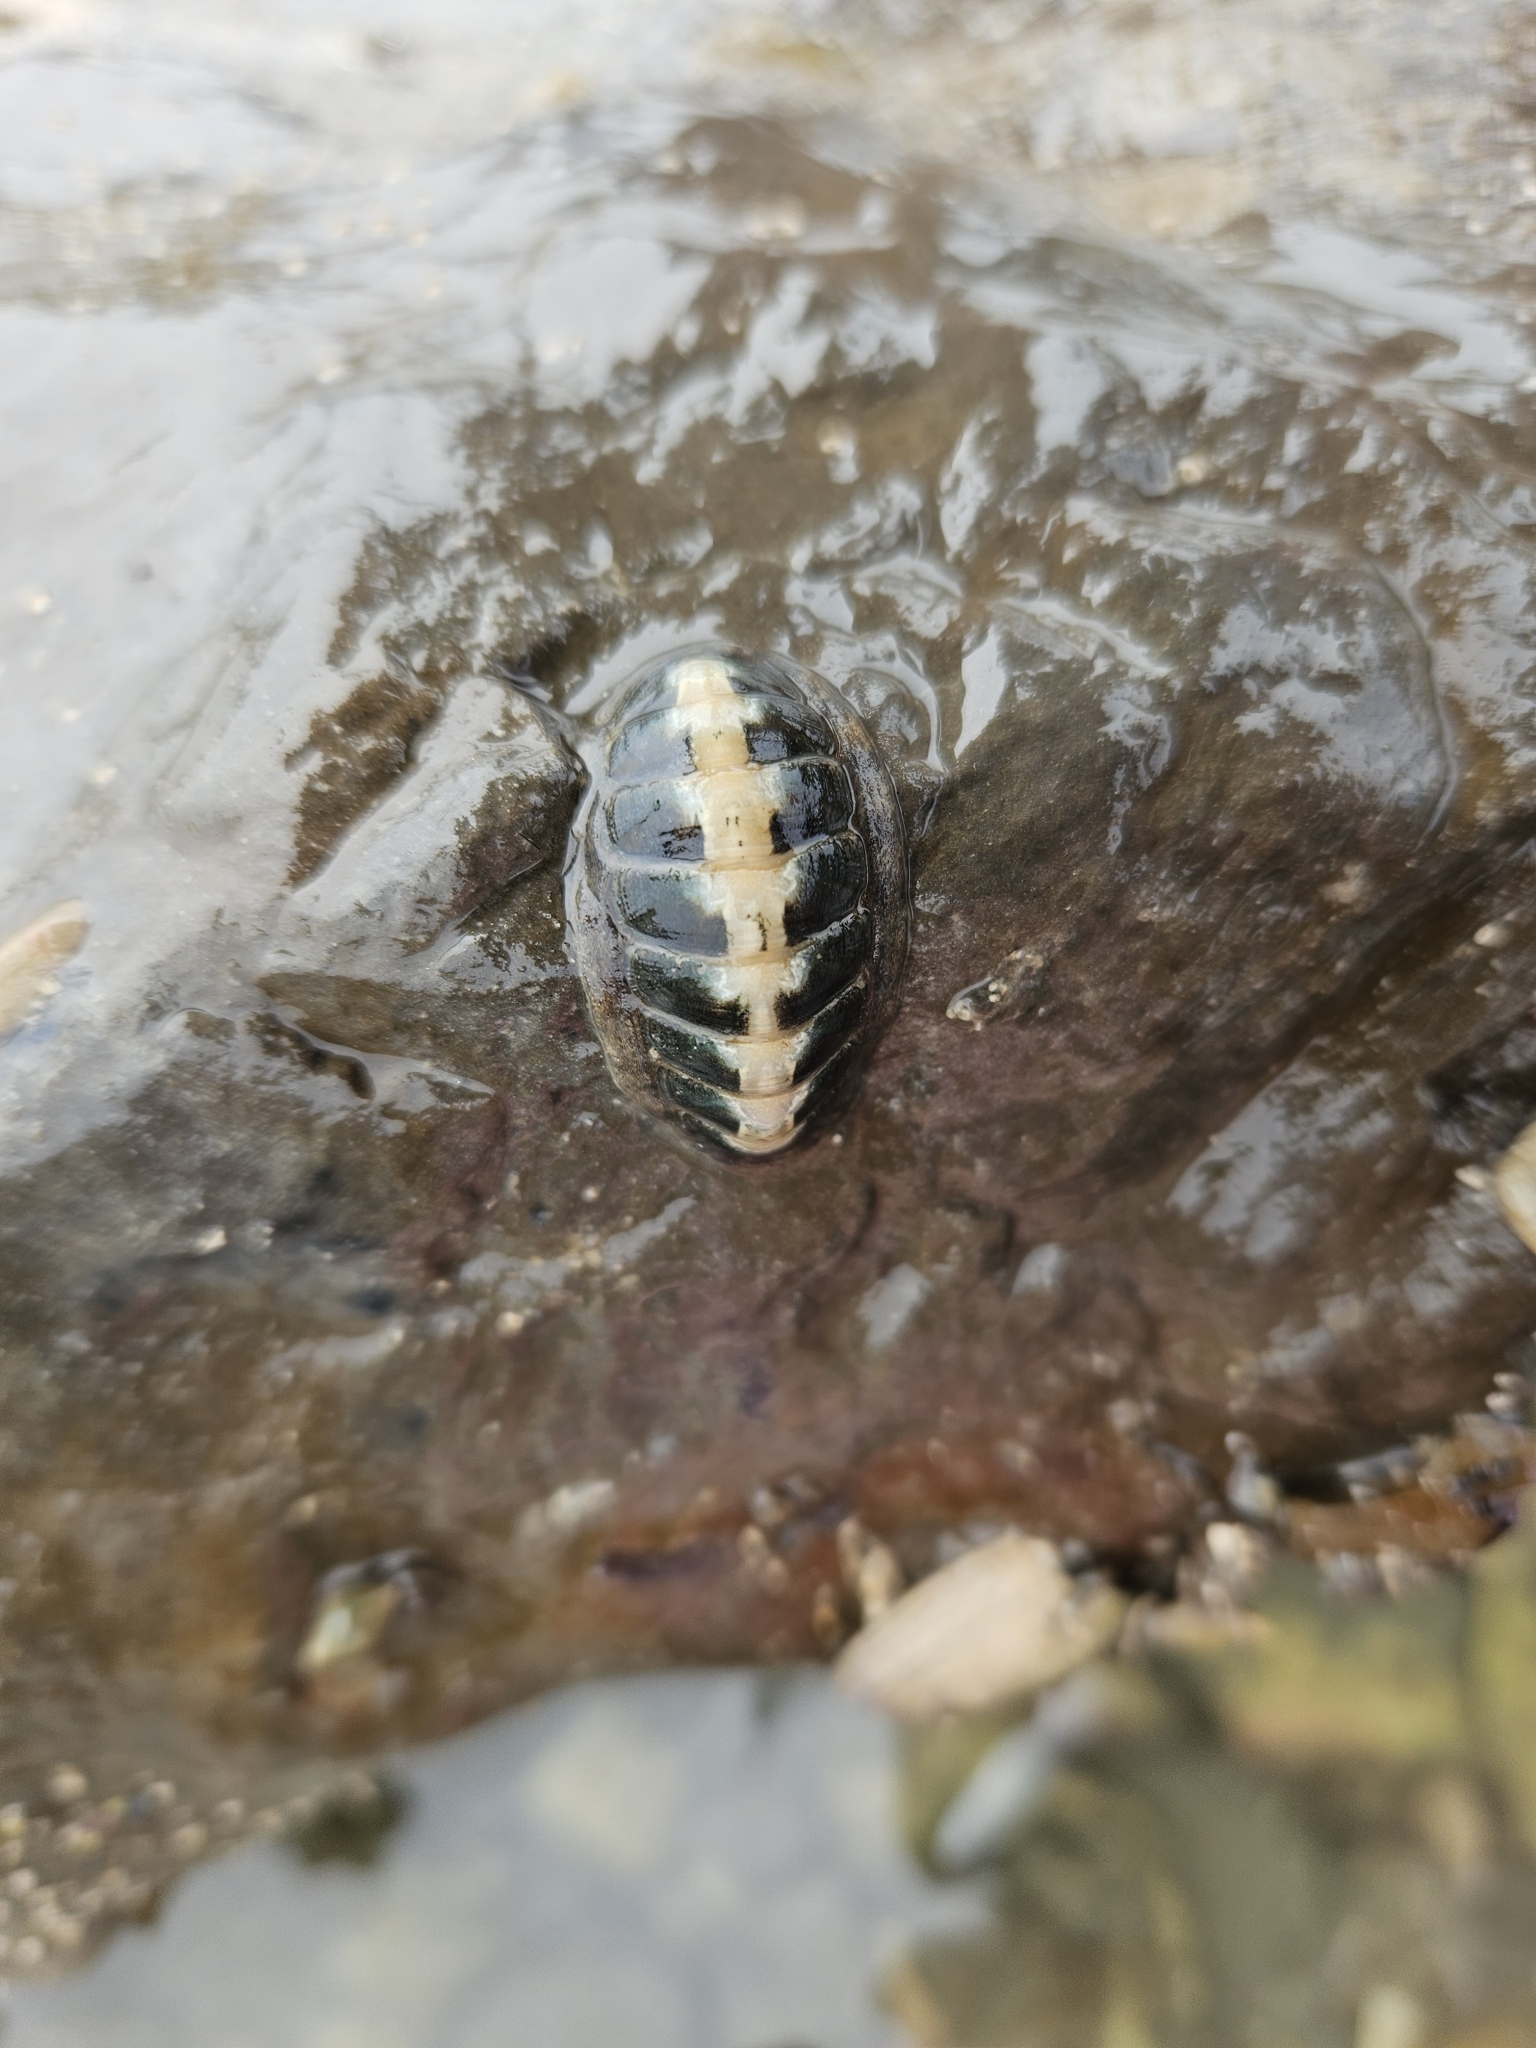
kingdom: Animalia
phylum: Mollusca
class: Polyplacophora
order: Chitonida
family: Ischnochitonidae
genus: Ischnochiton
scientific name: Ischnochiton maorianus
